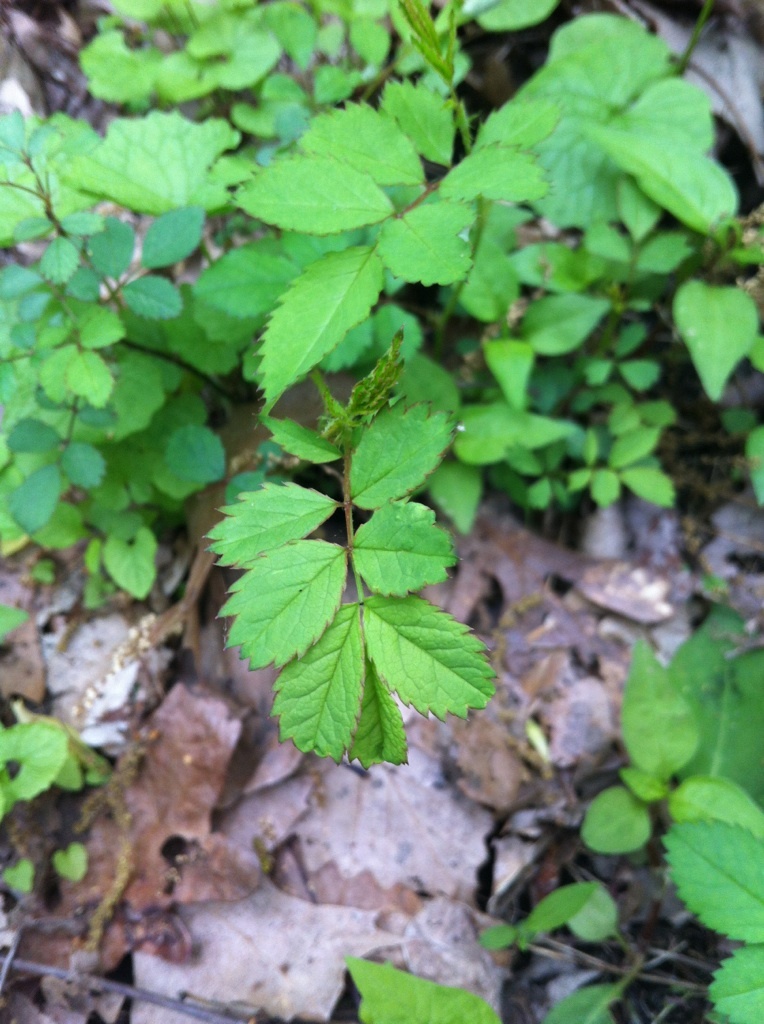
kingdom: Plantae
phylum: Tracheophyta
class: Magnoliopsida
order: Rosales
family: Rosaceae
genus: Rosa
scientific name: Rosa multiflora
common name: Multiflora rose
